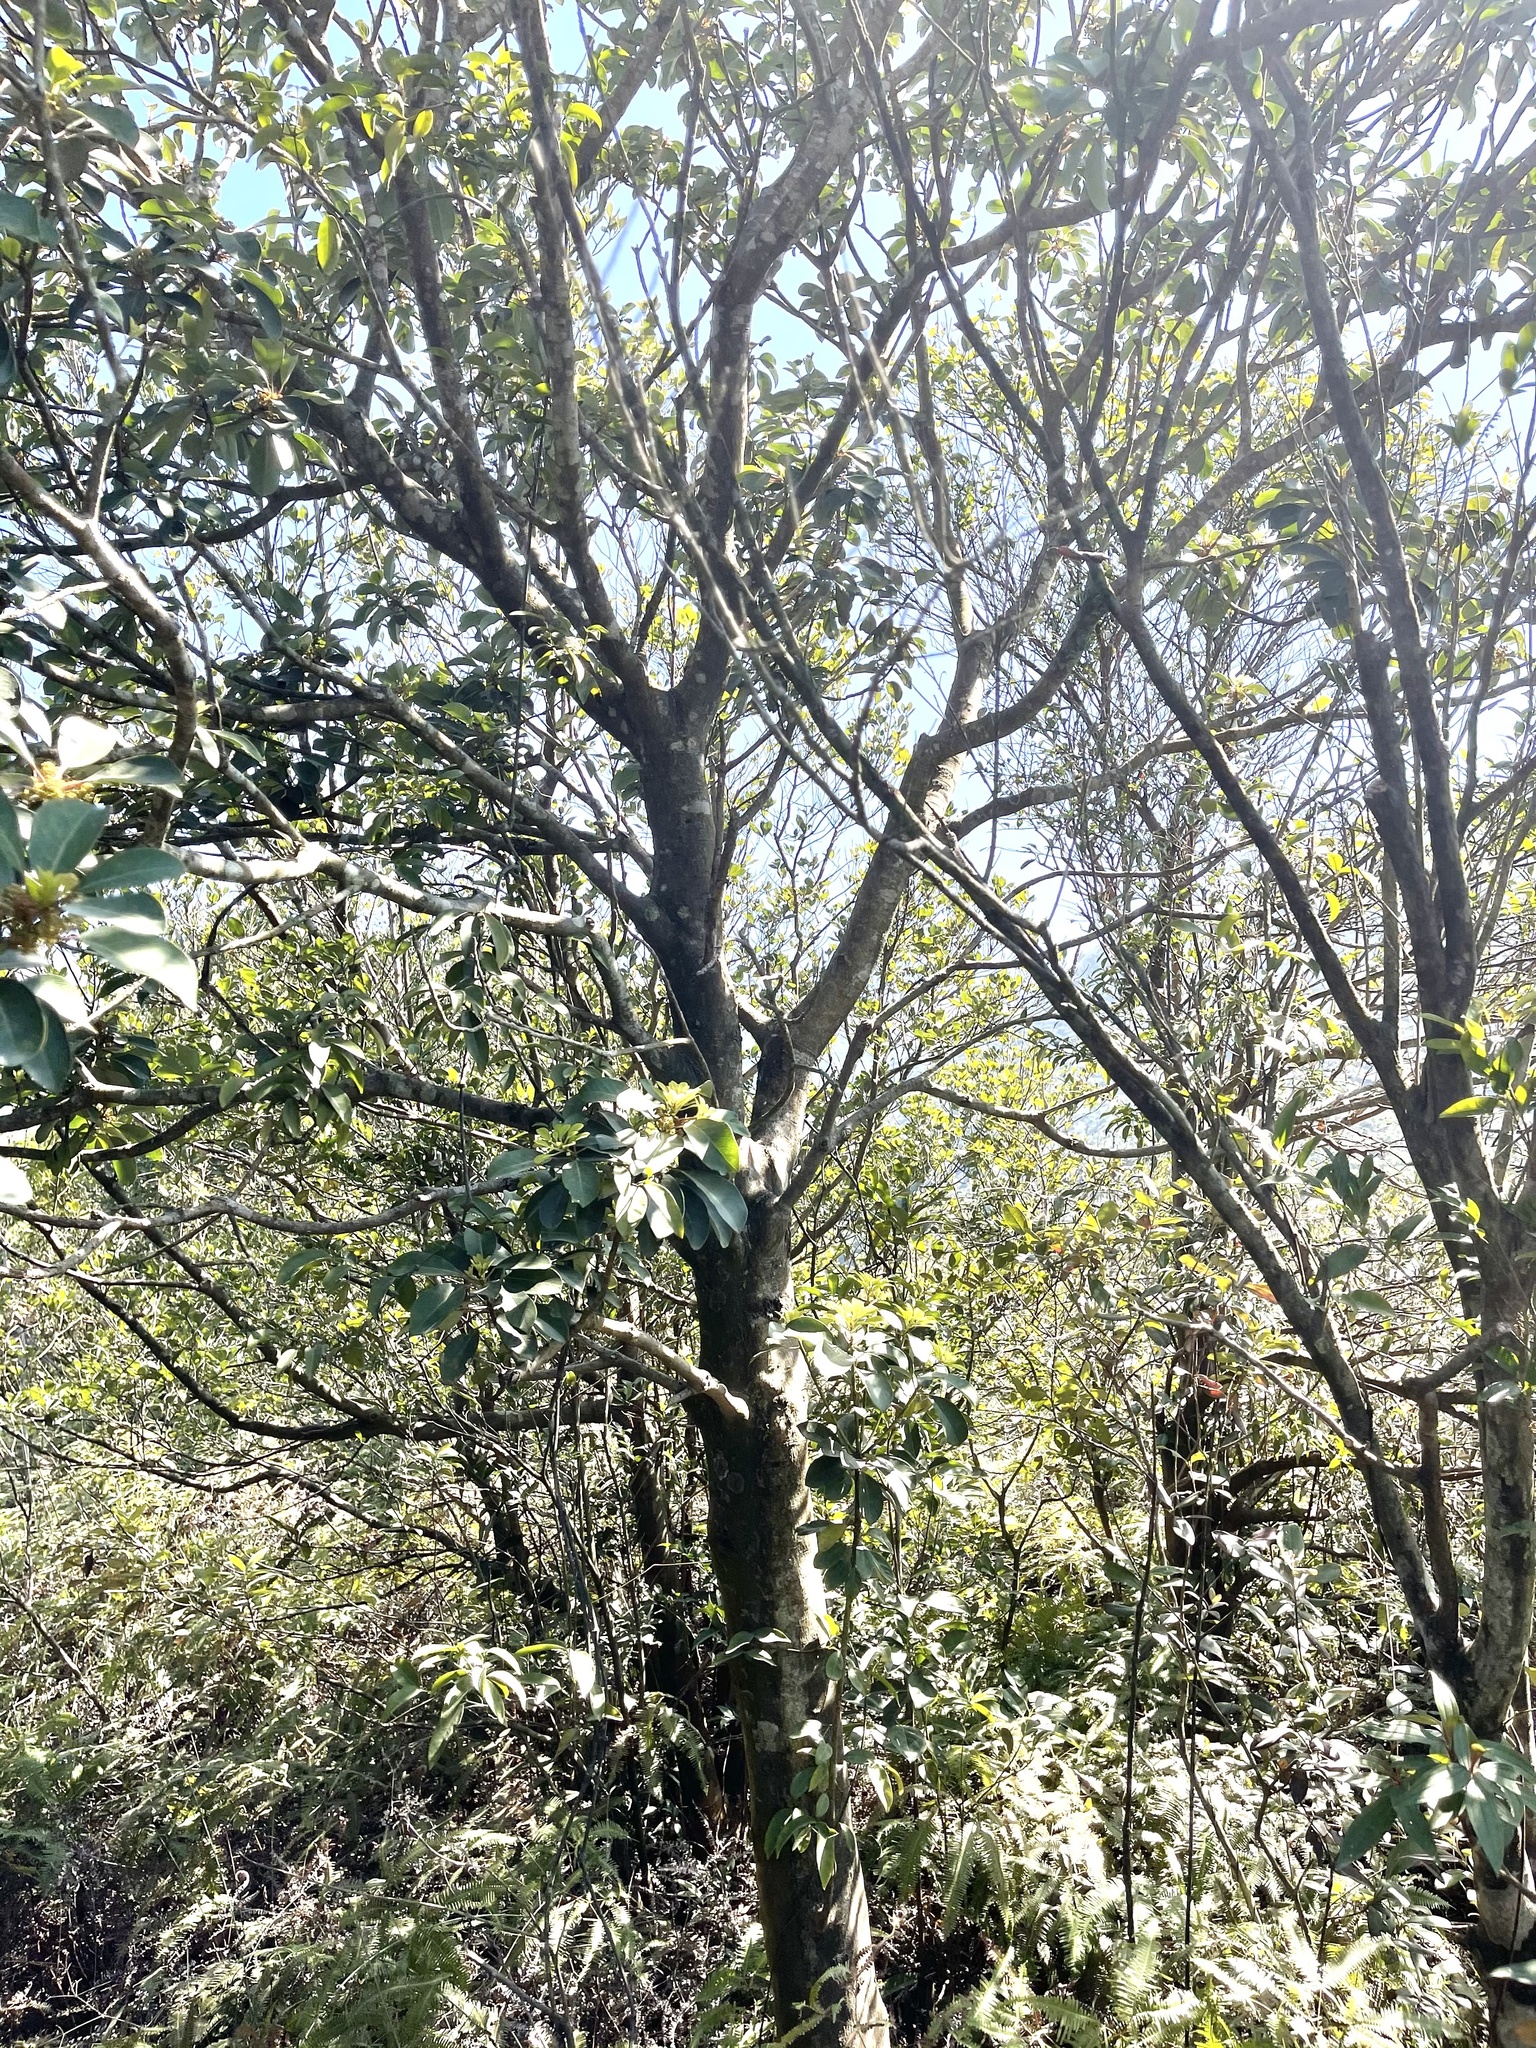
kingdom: Plantae
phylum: Tracheophyta
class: Magnoliopsida
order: Saxifragales
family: Daphniphyllaceae
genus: Daphniphyllum
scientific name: Daphniphyllum pentandrum
